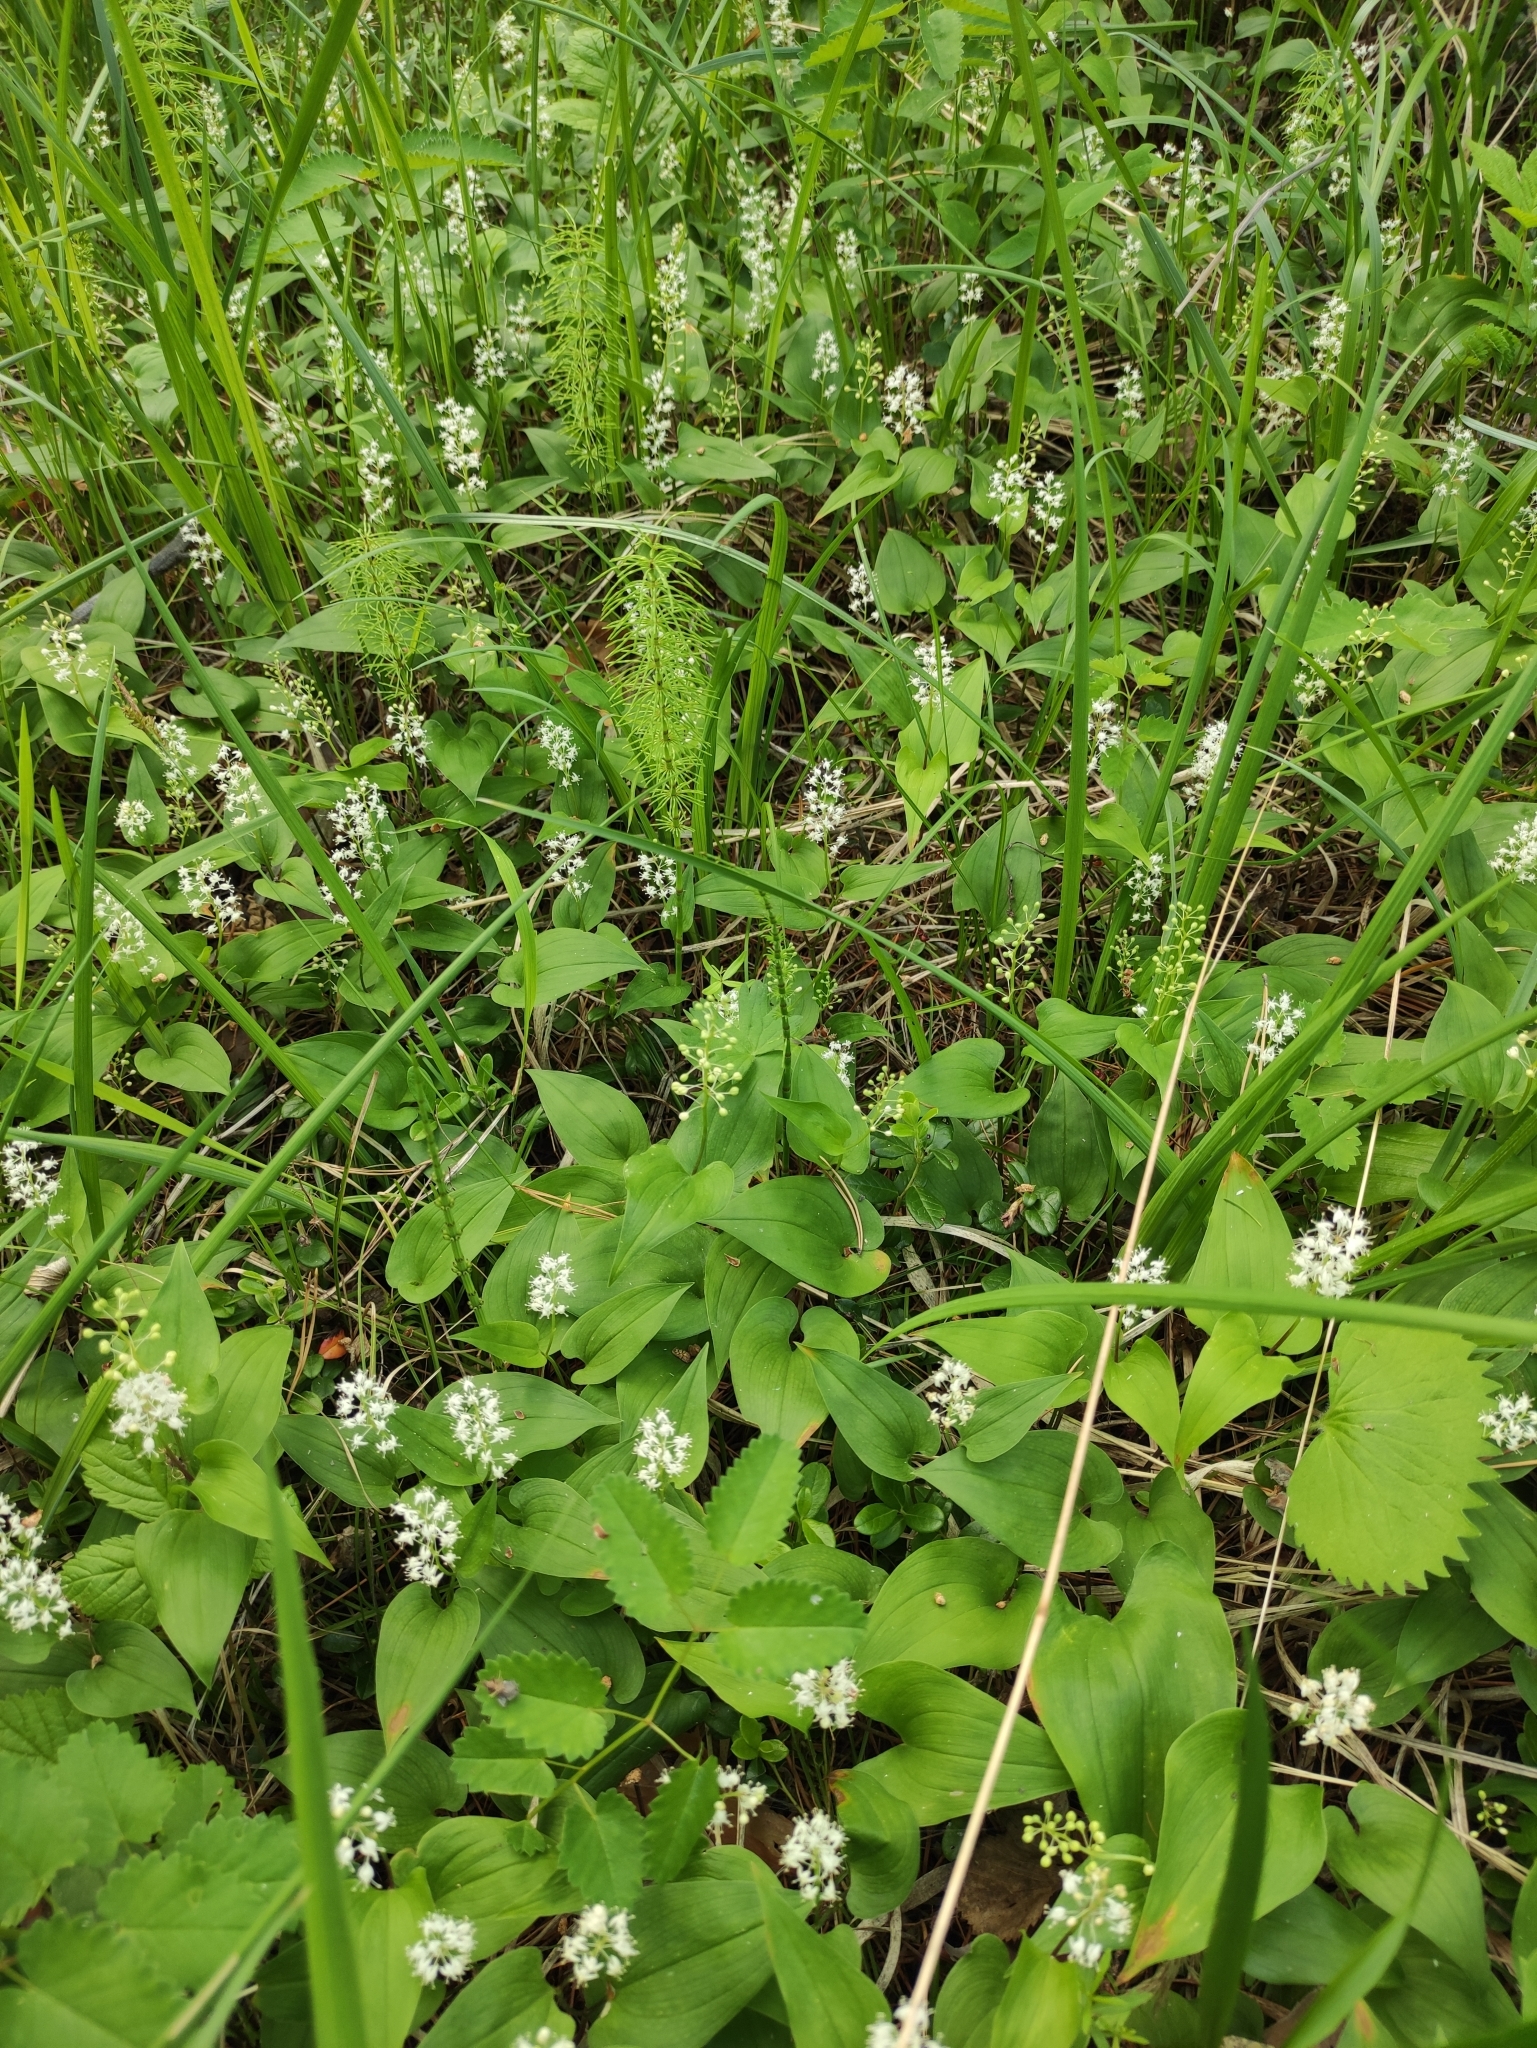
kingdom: Plantae
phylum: Tracheophyta
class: Liliopsida
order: Asparagales
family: Asparagaceae
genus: Maianthemum
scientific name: Maianthemum bifolium
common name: May lily
